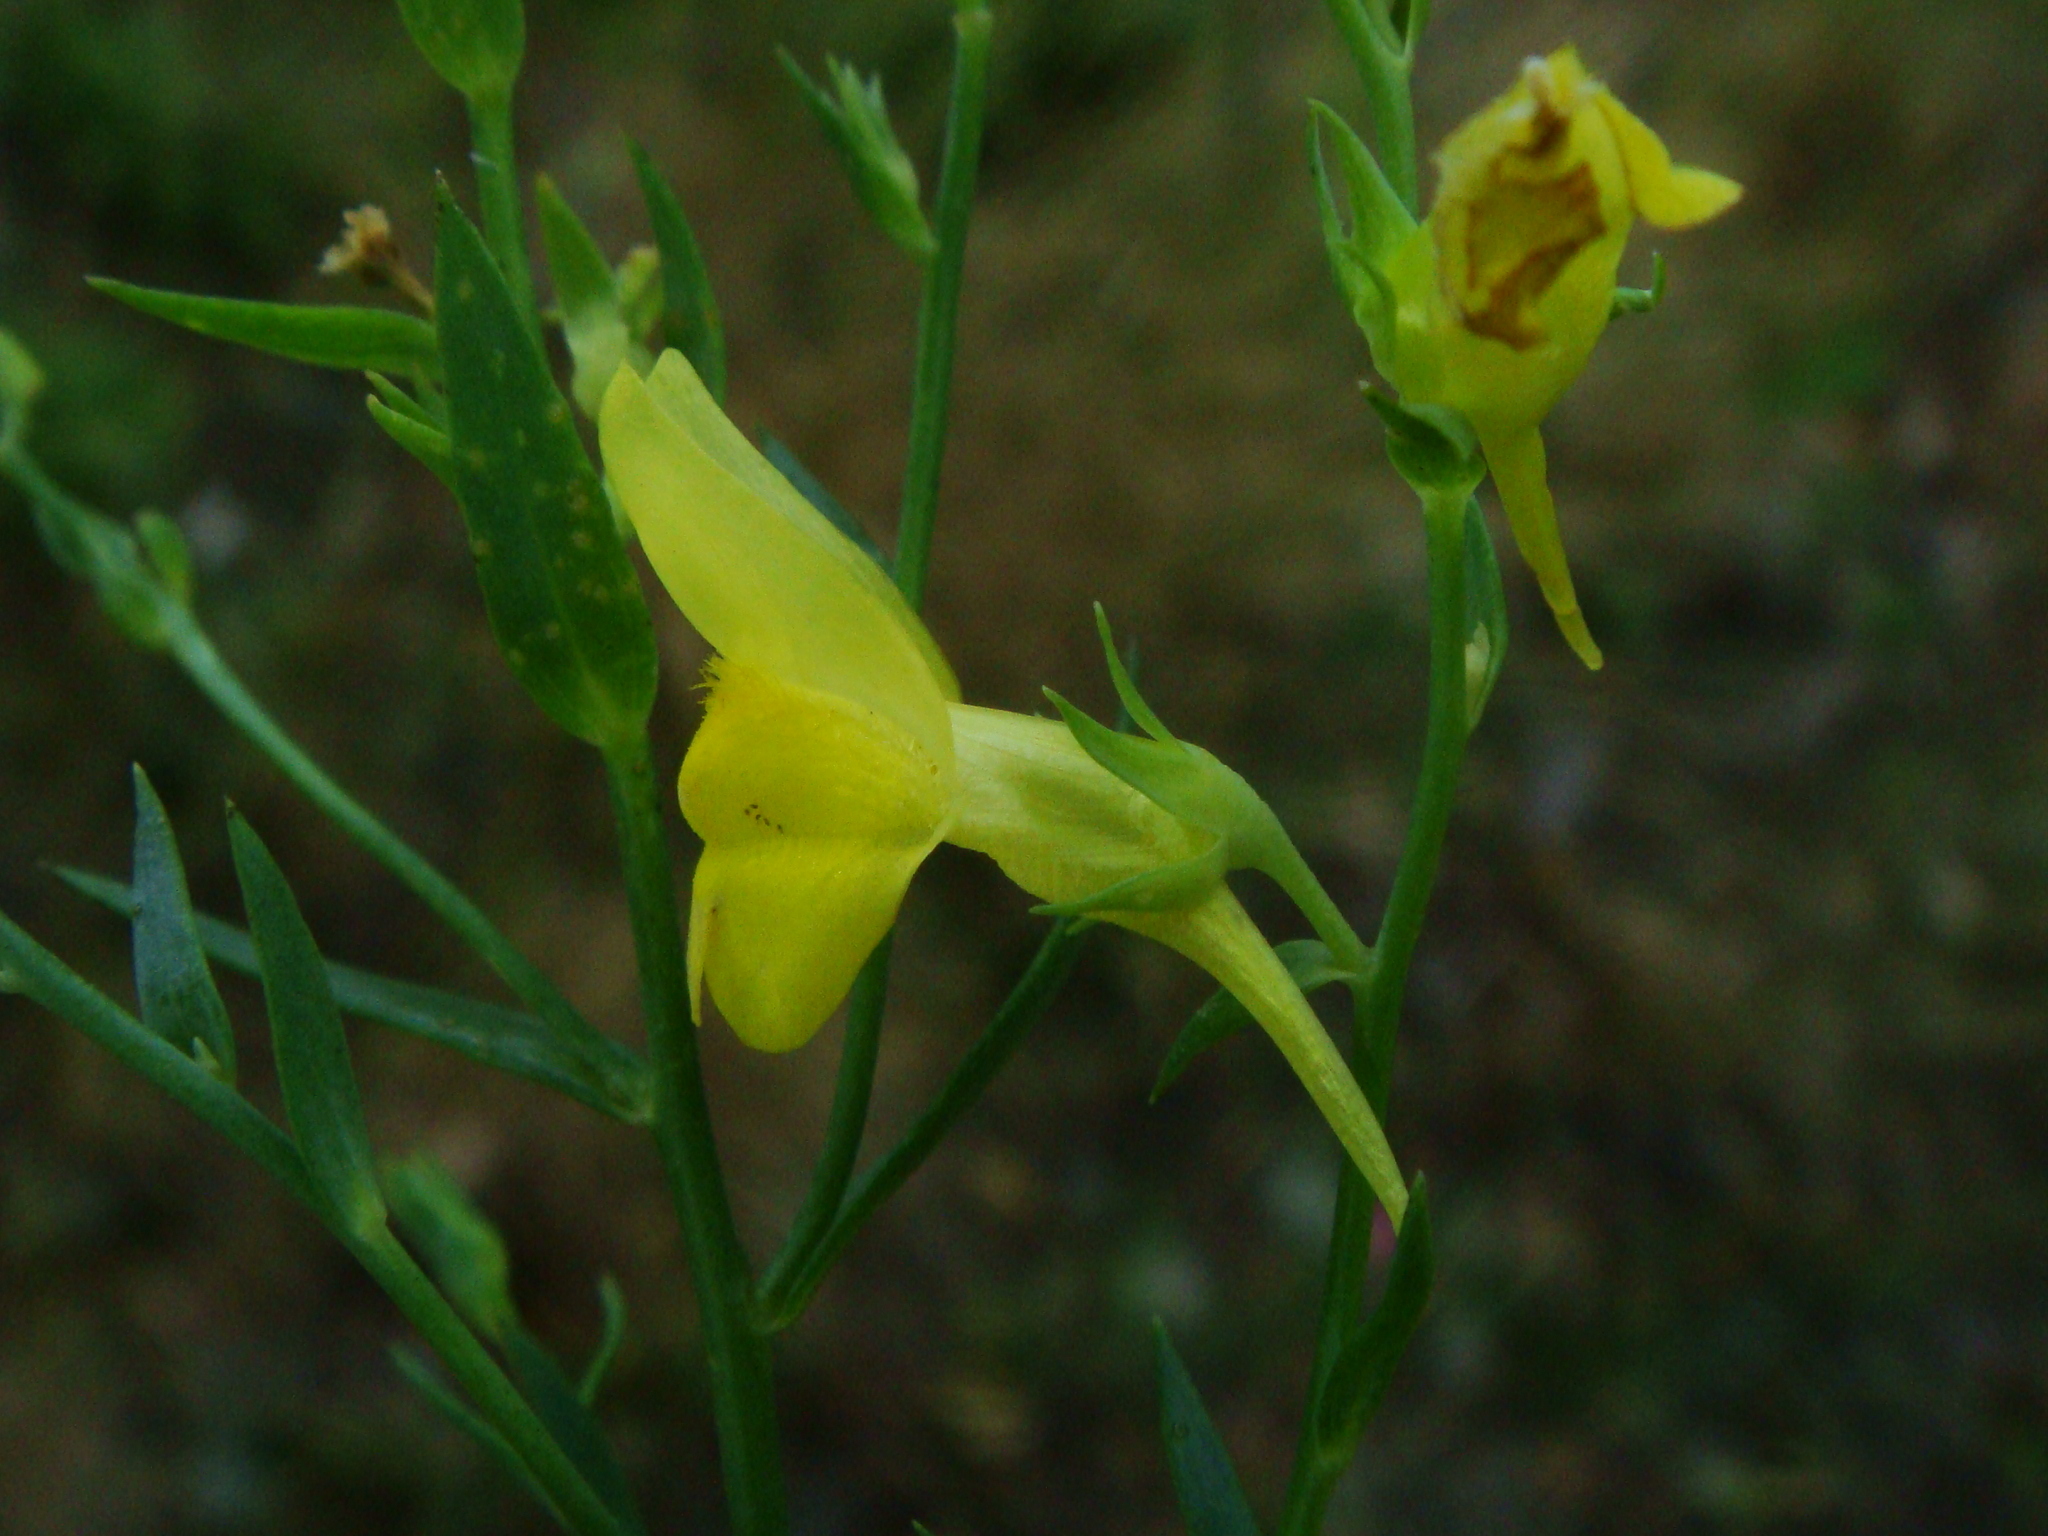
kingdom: Plantae
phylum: Tracheophyta
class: Magnoliopsida
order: Lamiales
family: Plantaginaceae
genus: Linaria
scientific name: Linaria genistifolia
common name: Broomleaf toadflax
